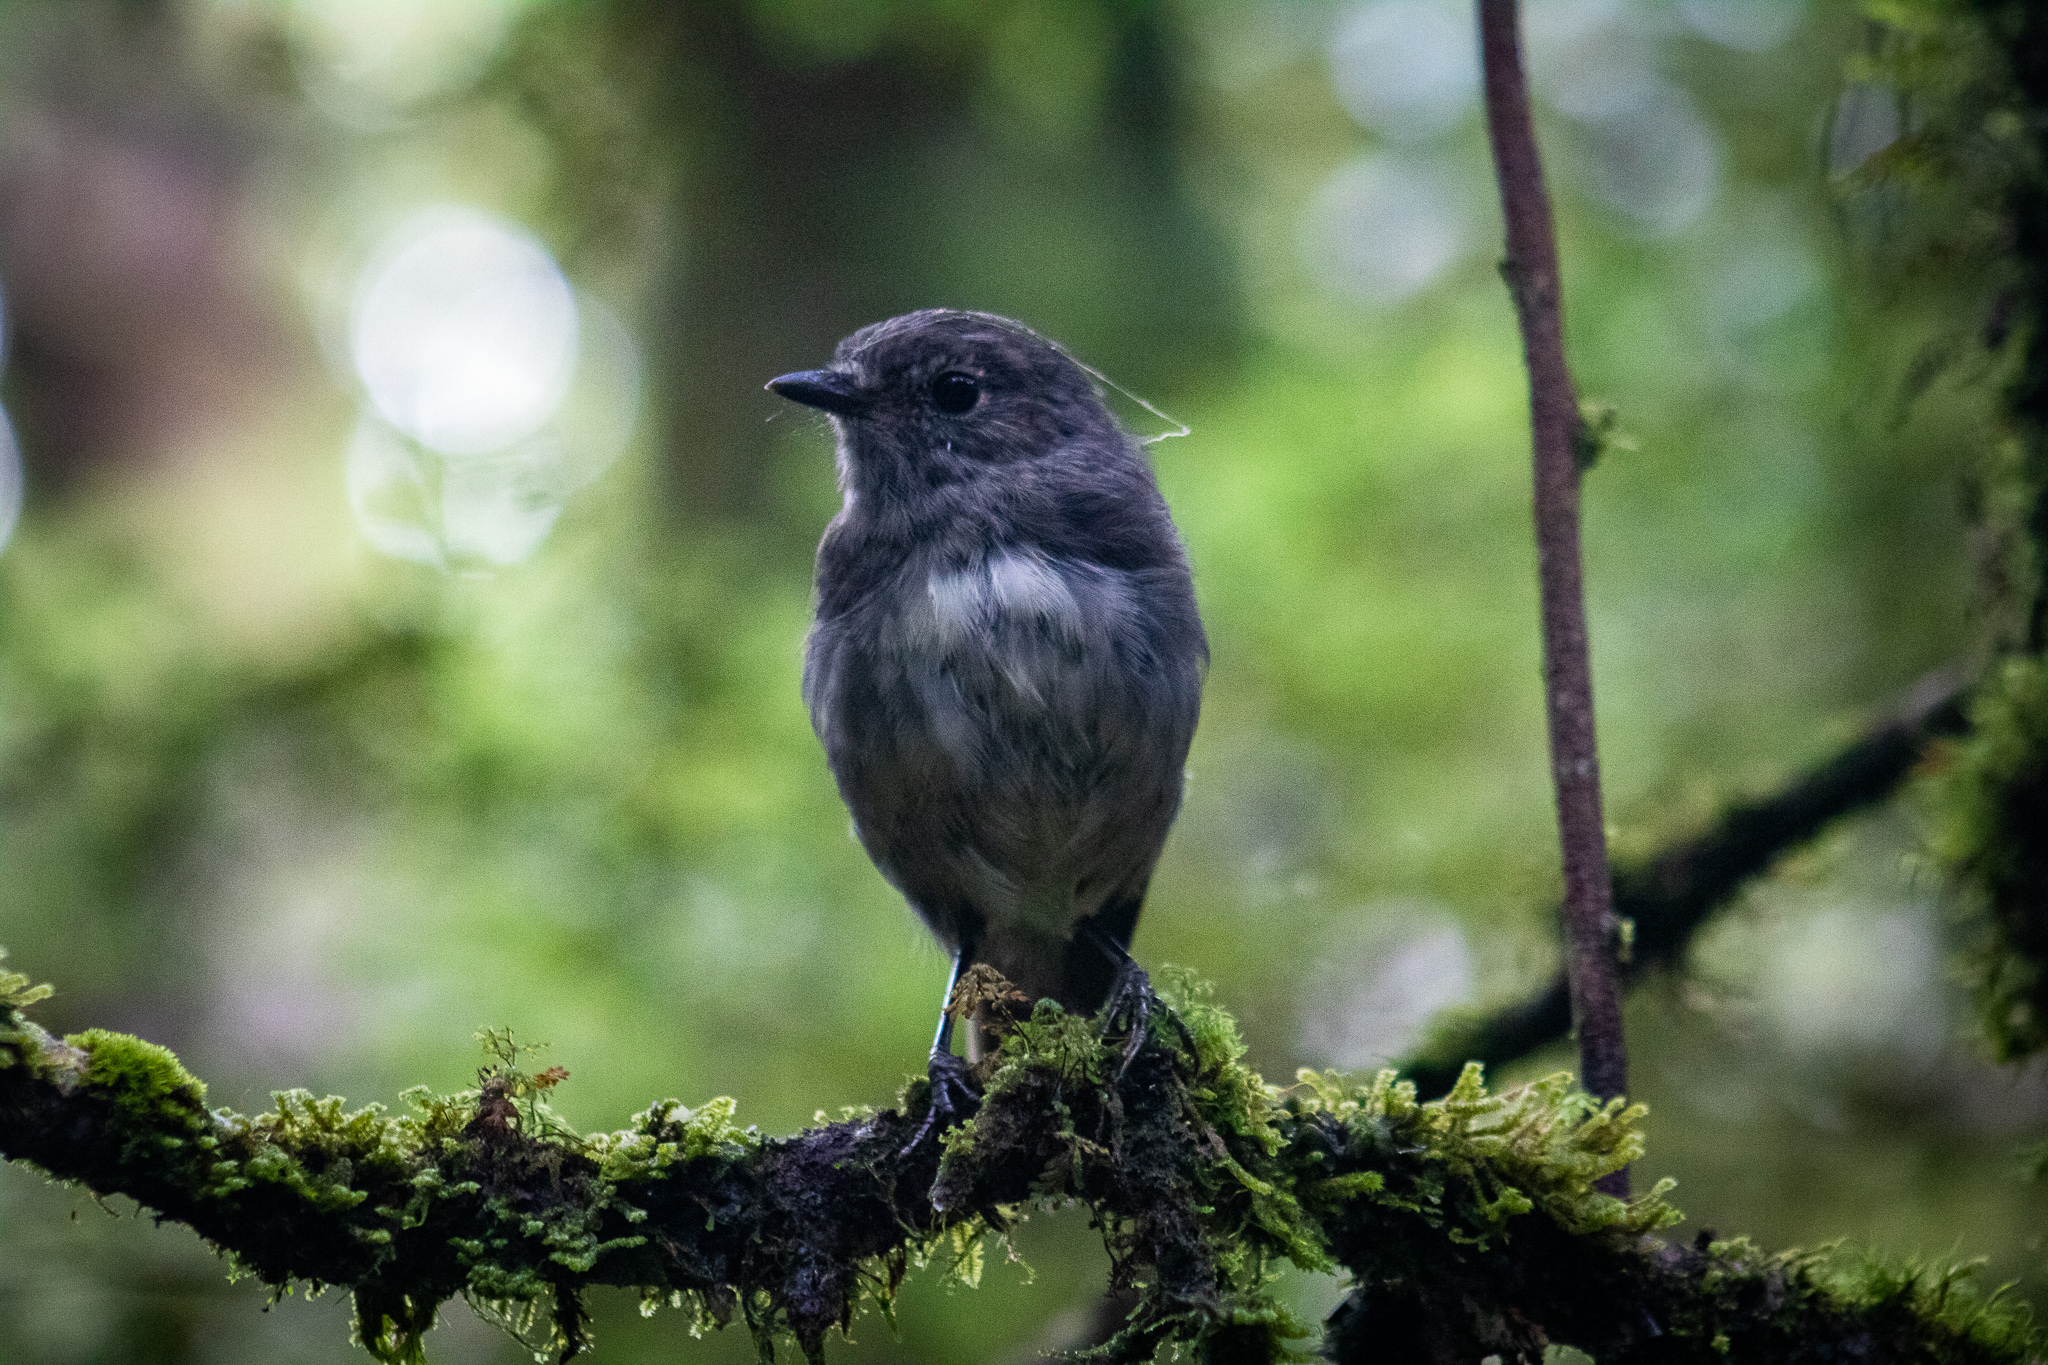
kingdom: Animalia
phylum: Chordata
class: Aves
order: Passeriformes
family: Petroicidae
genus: Petroica
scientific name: Petroica australis
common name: New zealand robin
